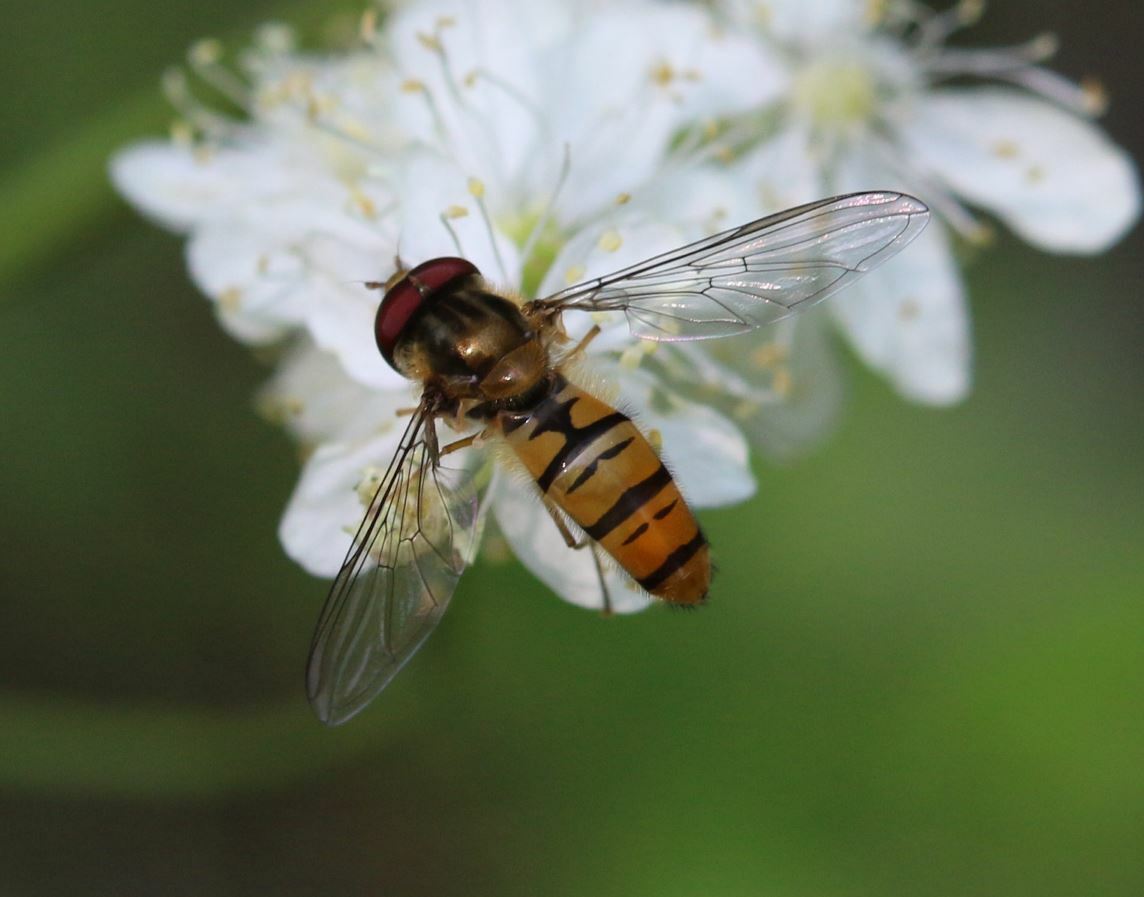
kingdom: Animalia
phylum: Arthropoda
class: Insecta
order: Diptera
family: Syrphidae
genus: Episyrphus
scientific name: Episyrphus balteatus
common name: Marmalade hoverfly
